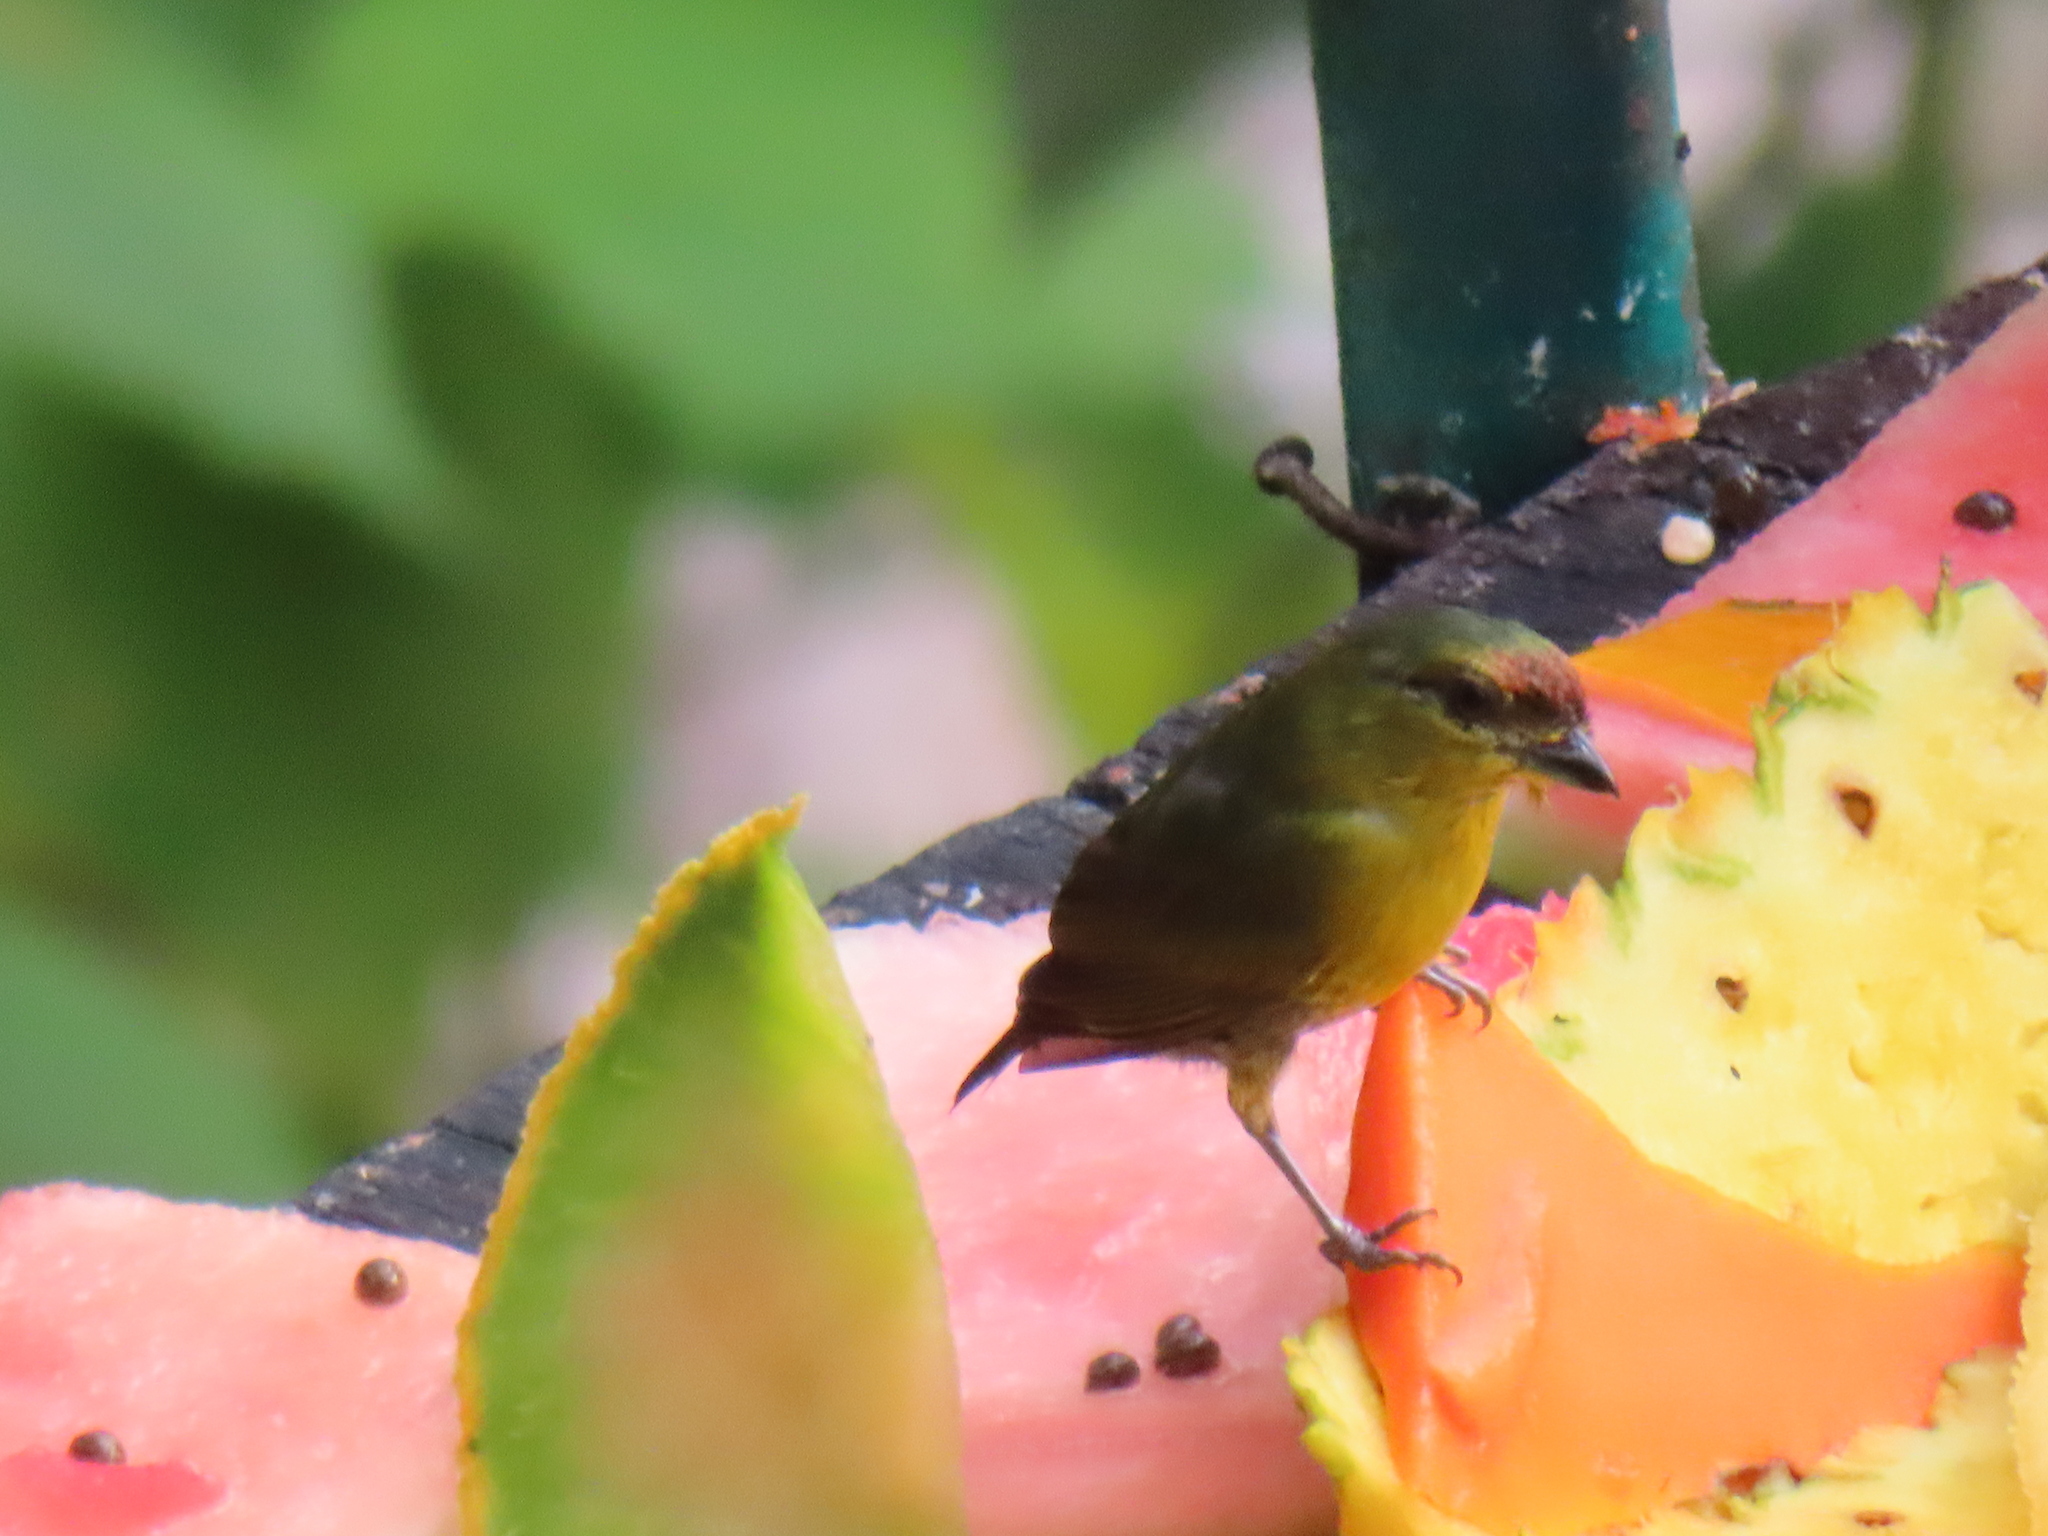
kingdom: Animalia
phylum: Chordata
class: Aves
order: Passeriformes
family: Fringillidae
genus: Euphonia
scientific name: Euphonia gouldi
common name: Olive-backed euphonia
